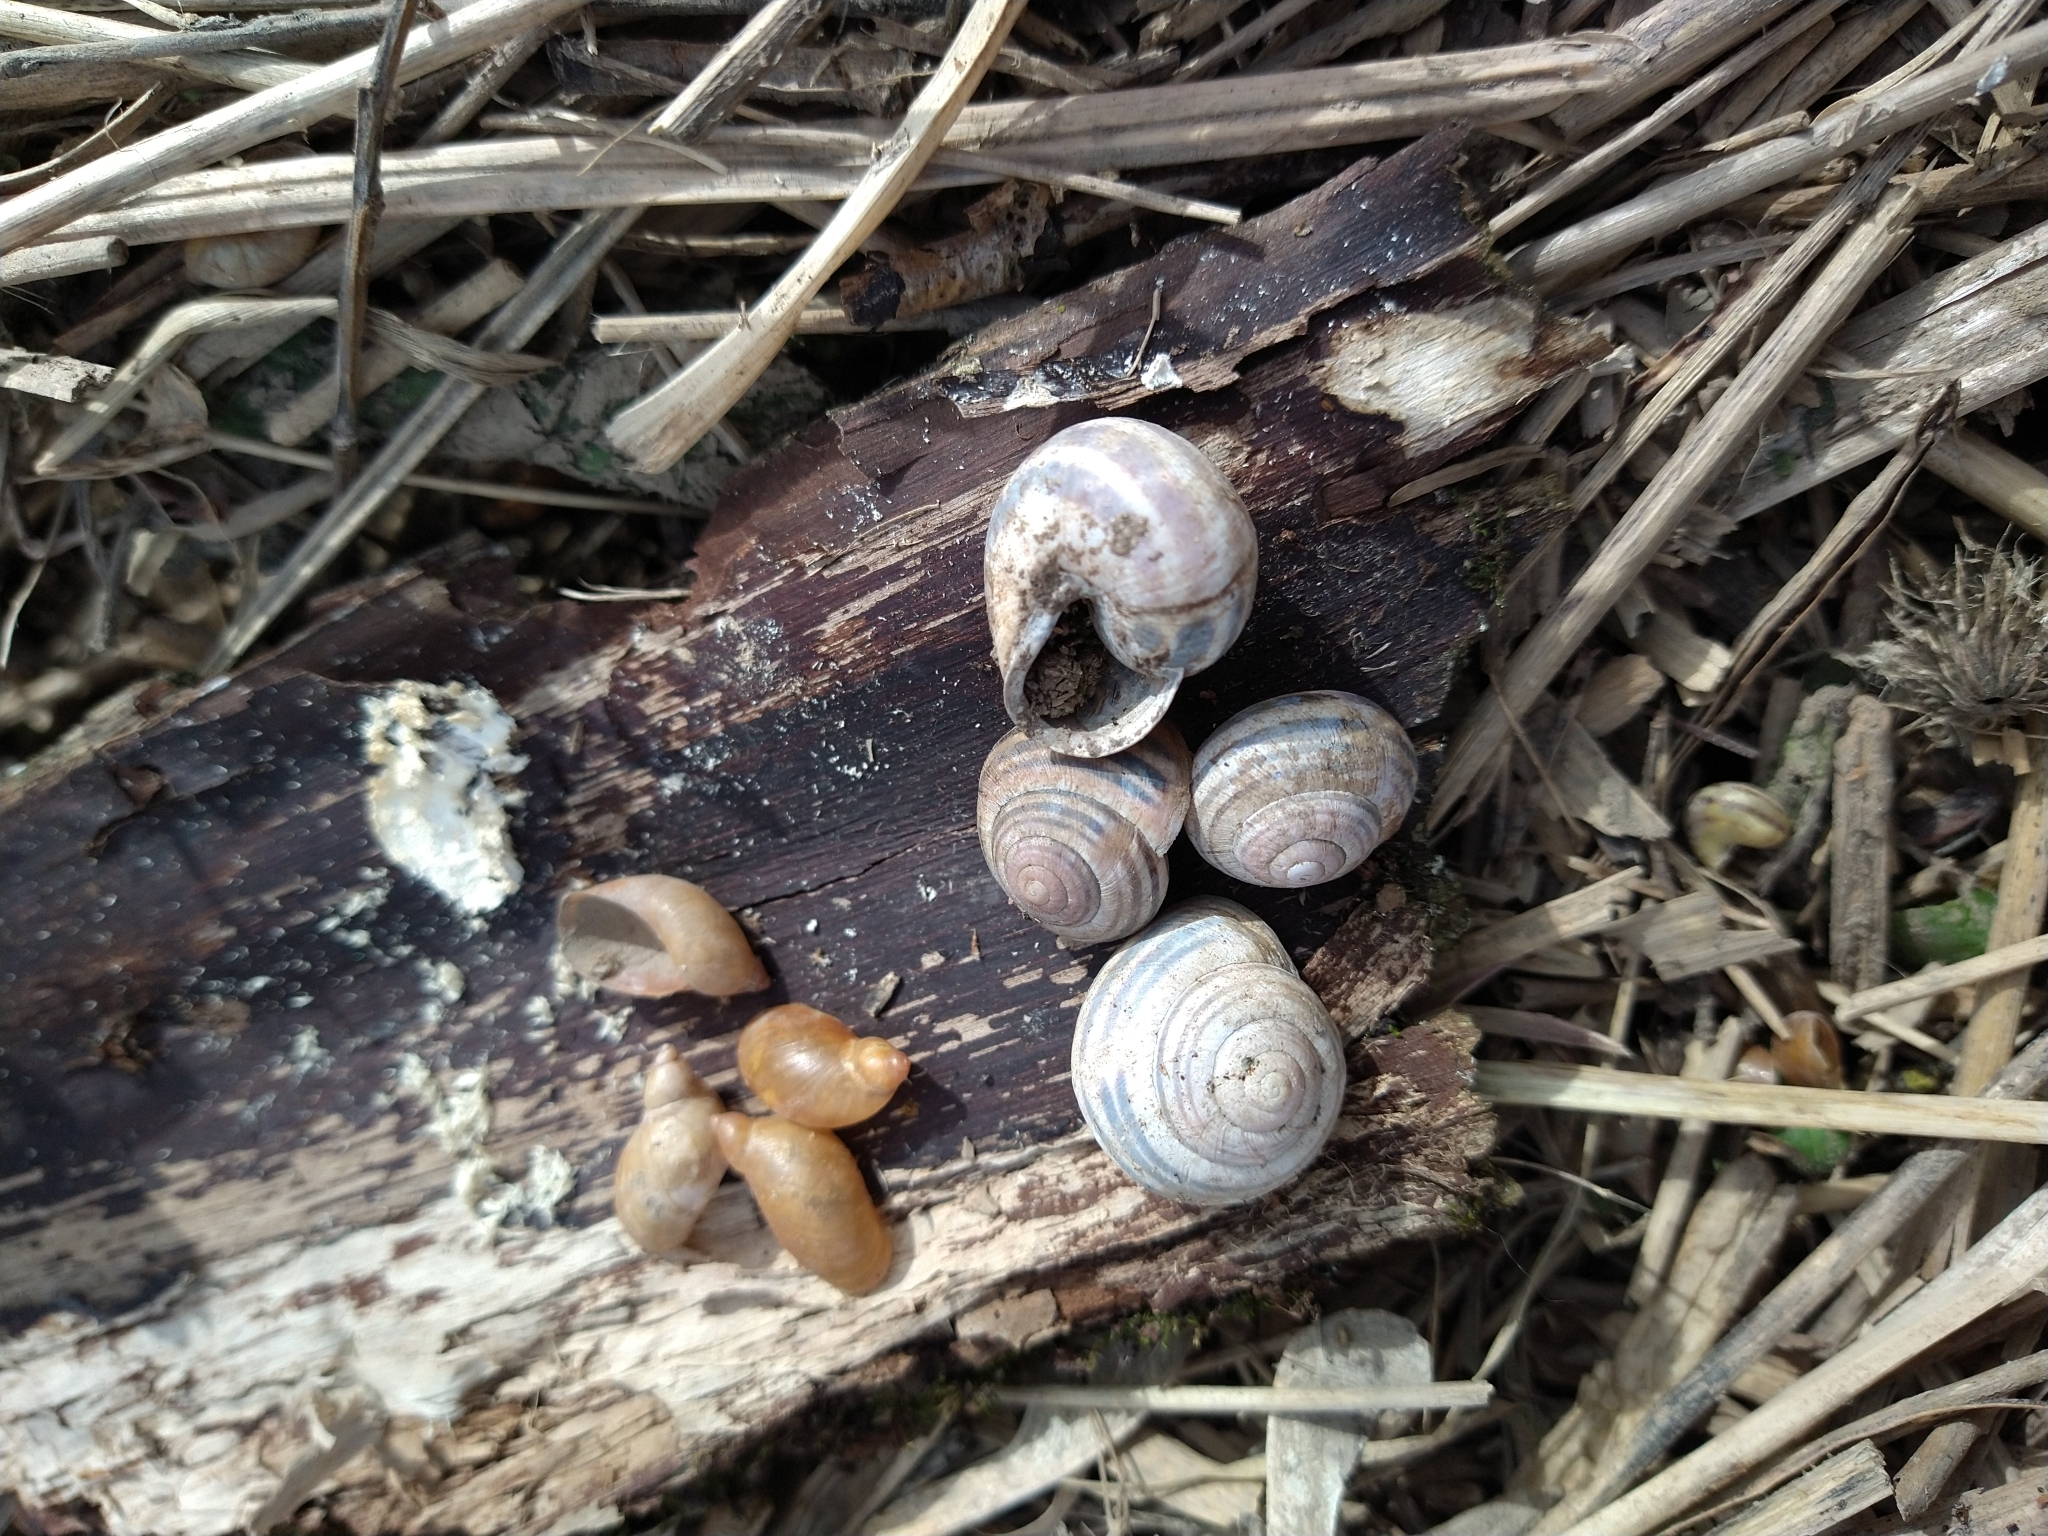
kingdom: Animalia
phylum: Mollusca
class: Gastropoda
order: Stylommatophora
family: Helicidae
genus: Cepaea
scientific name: Cepaea nemoralis
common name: Grovesnail
